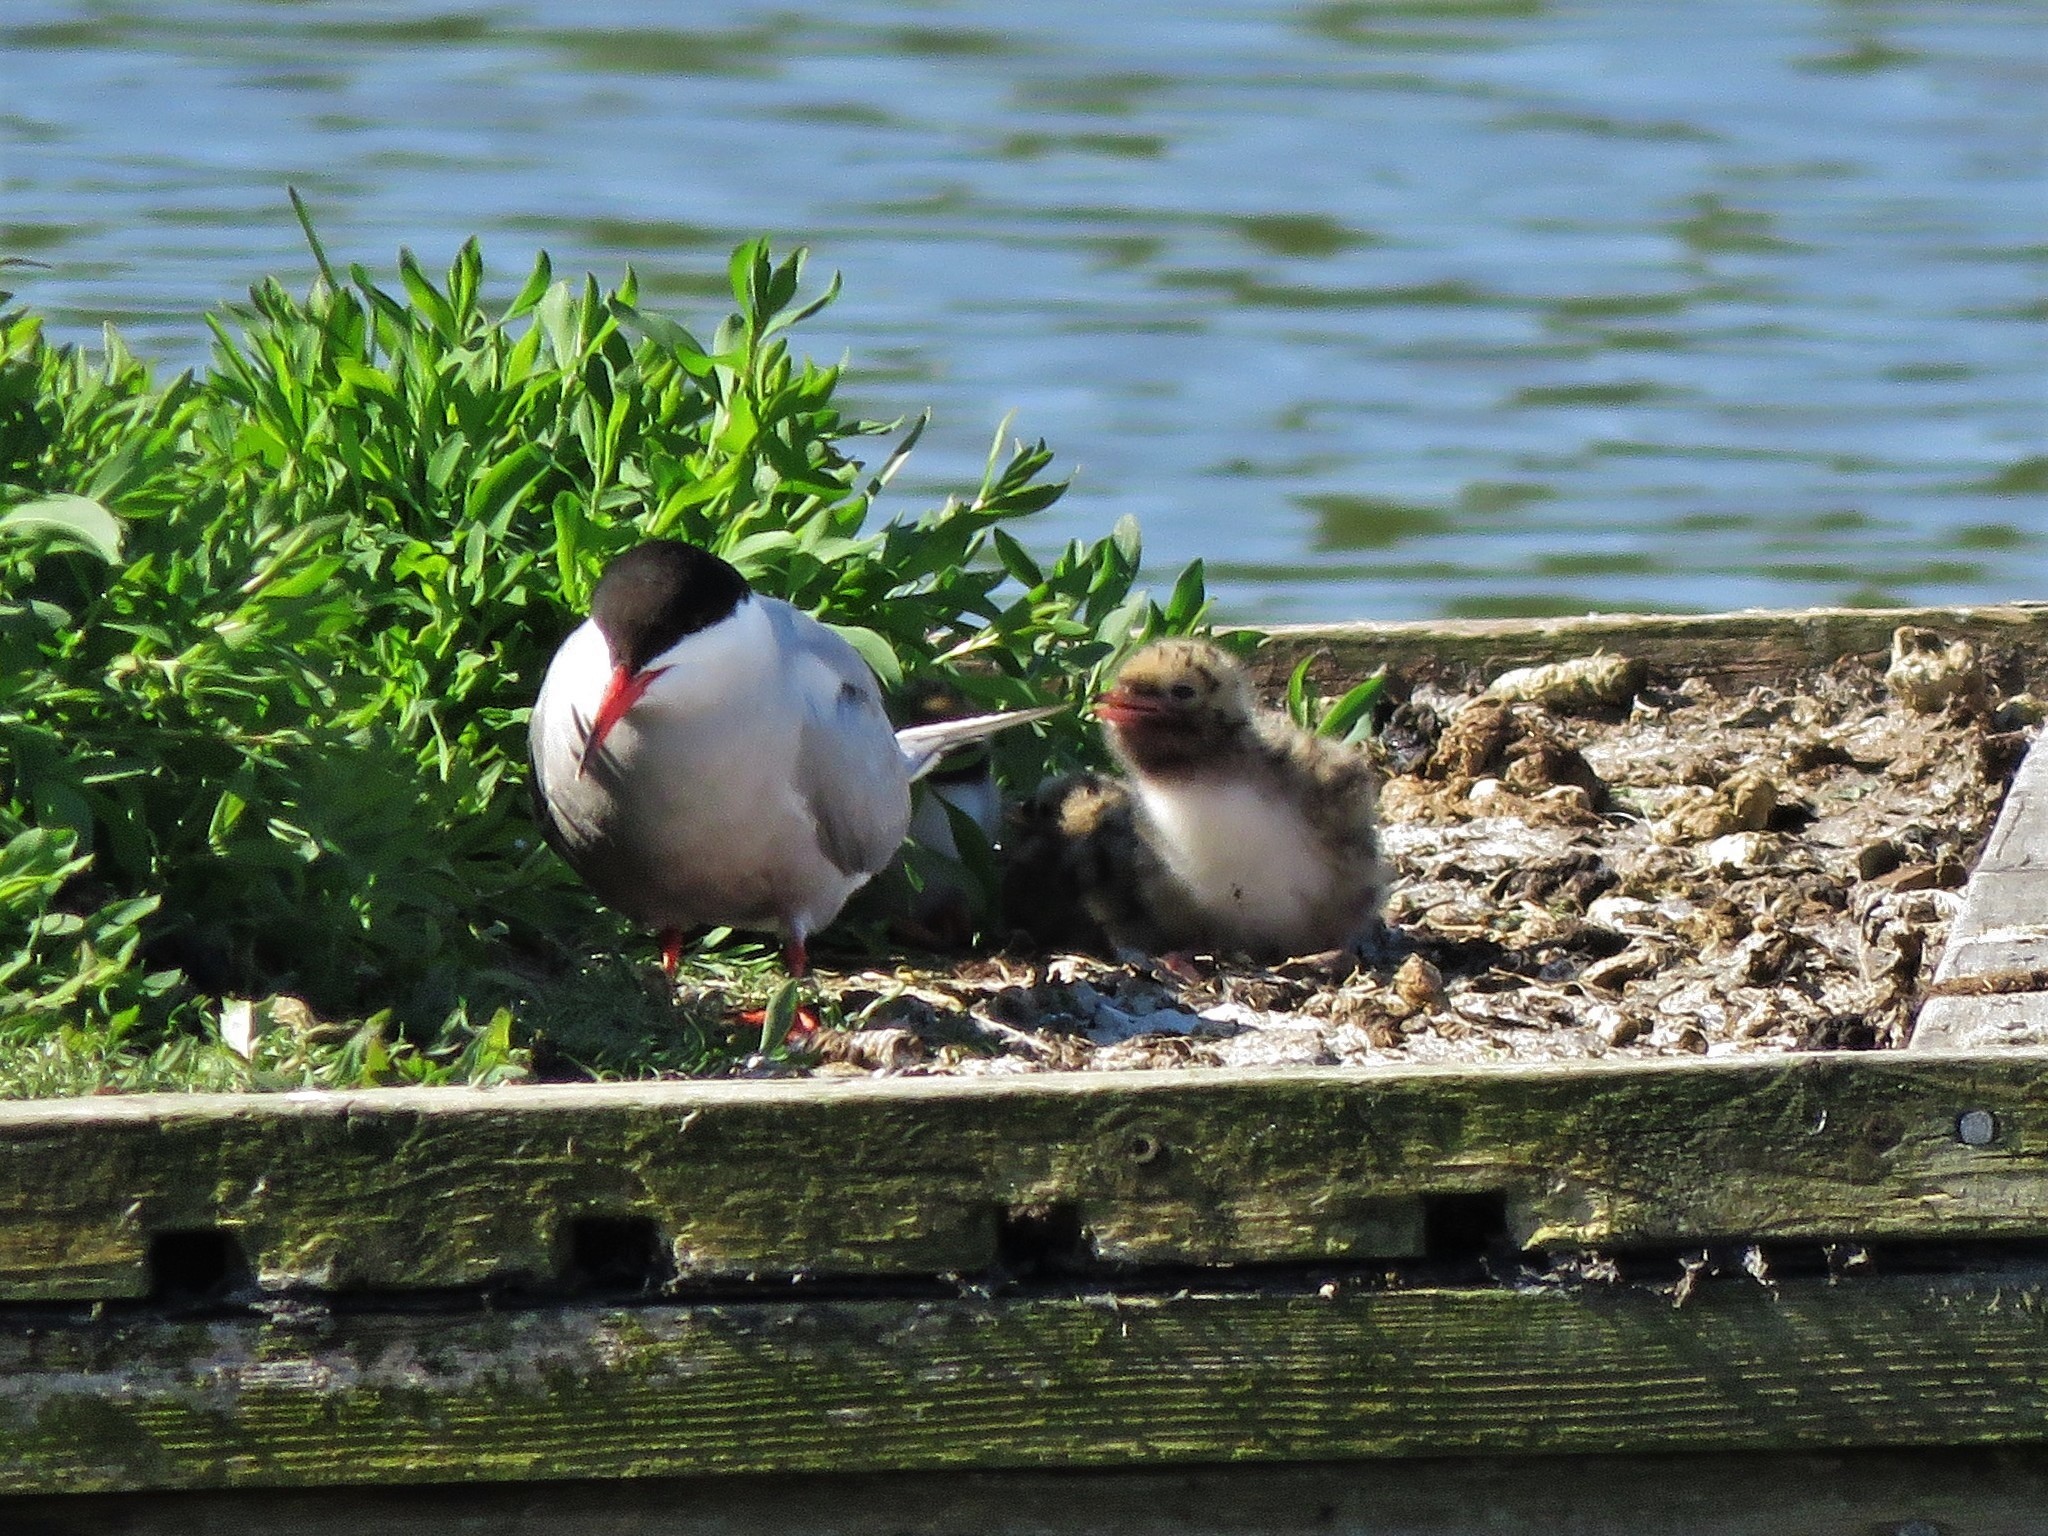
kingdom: Animalia
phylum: Chordata
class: Aves
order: Charadriiformes
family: Laridae
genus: Sterna
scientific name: Sterna hirundo
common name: Common tern
